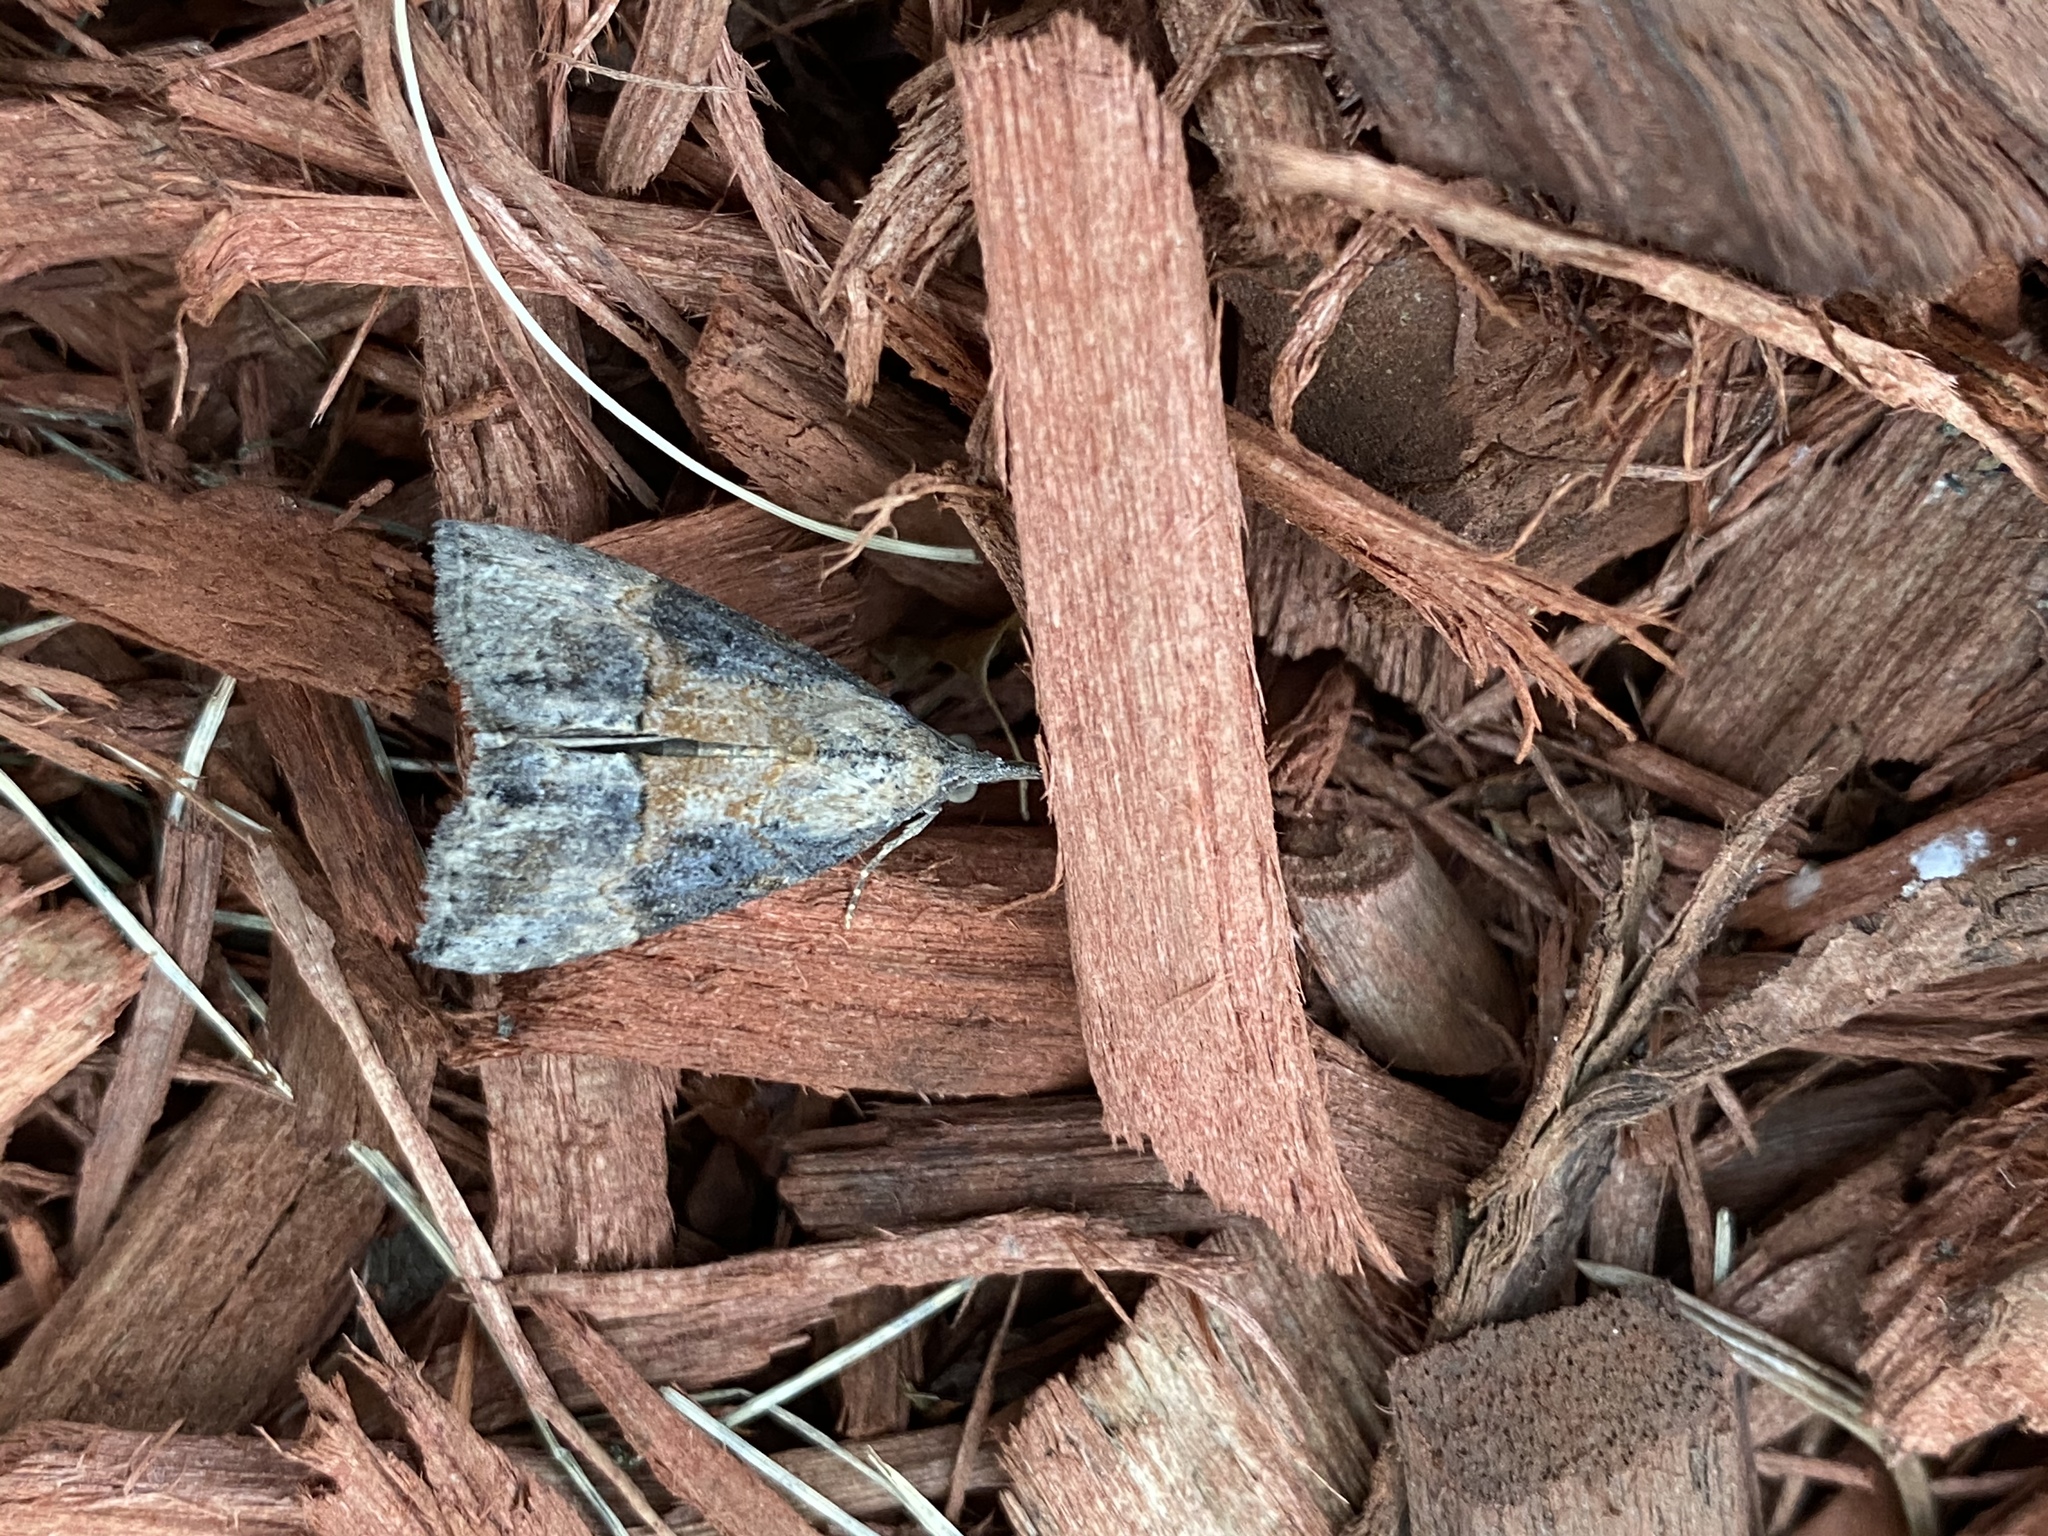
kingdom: Animalia
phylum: Arthropoda
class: Insecta
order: Lepidoptera
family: Erebidae
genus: Hypena
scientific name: Hypena scabra
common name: Green cloverworm
